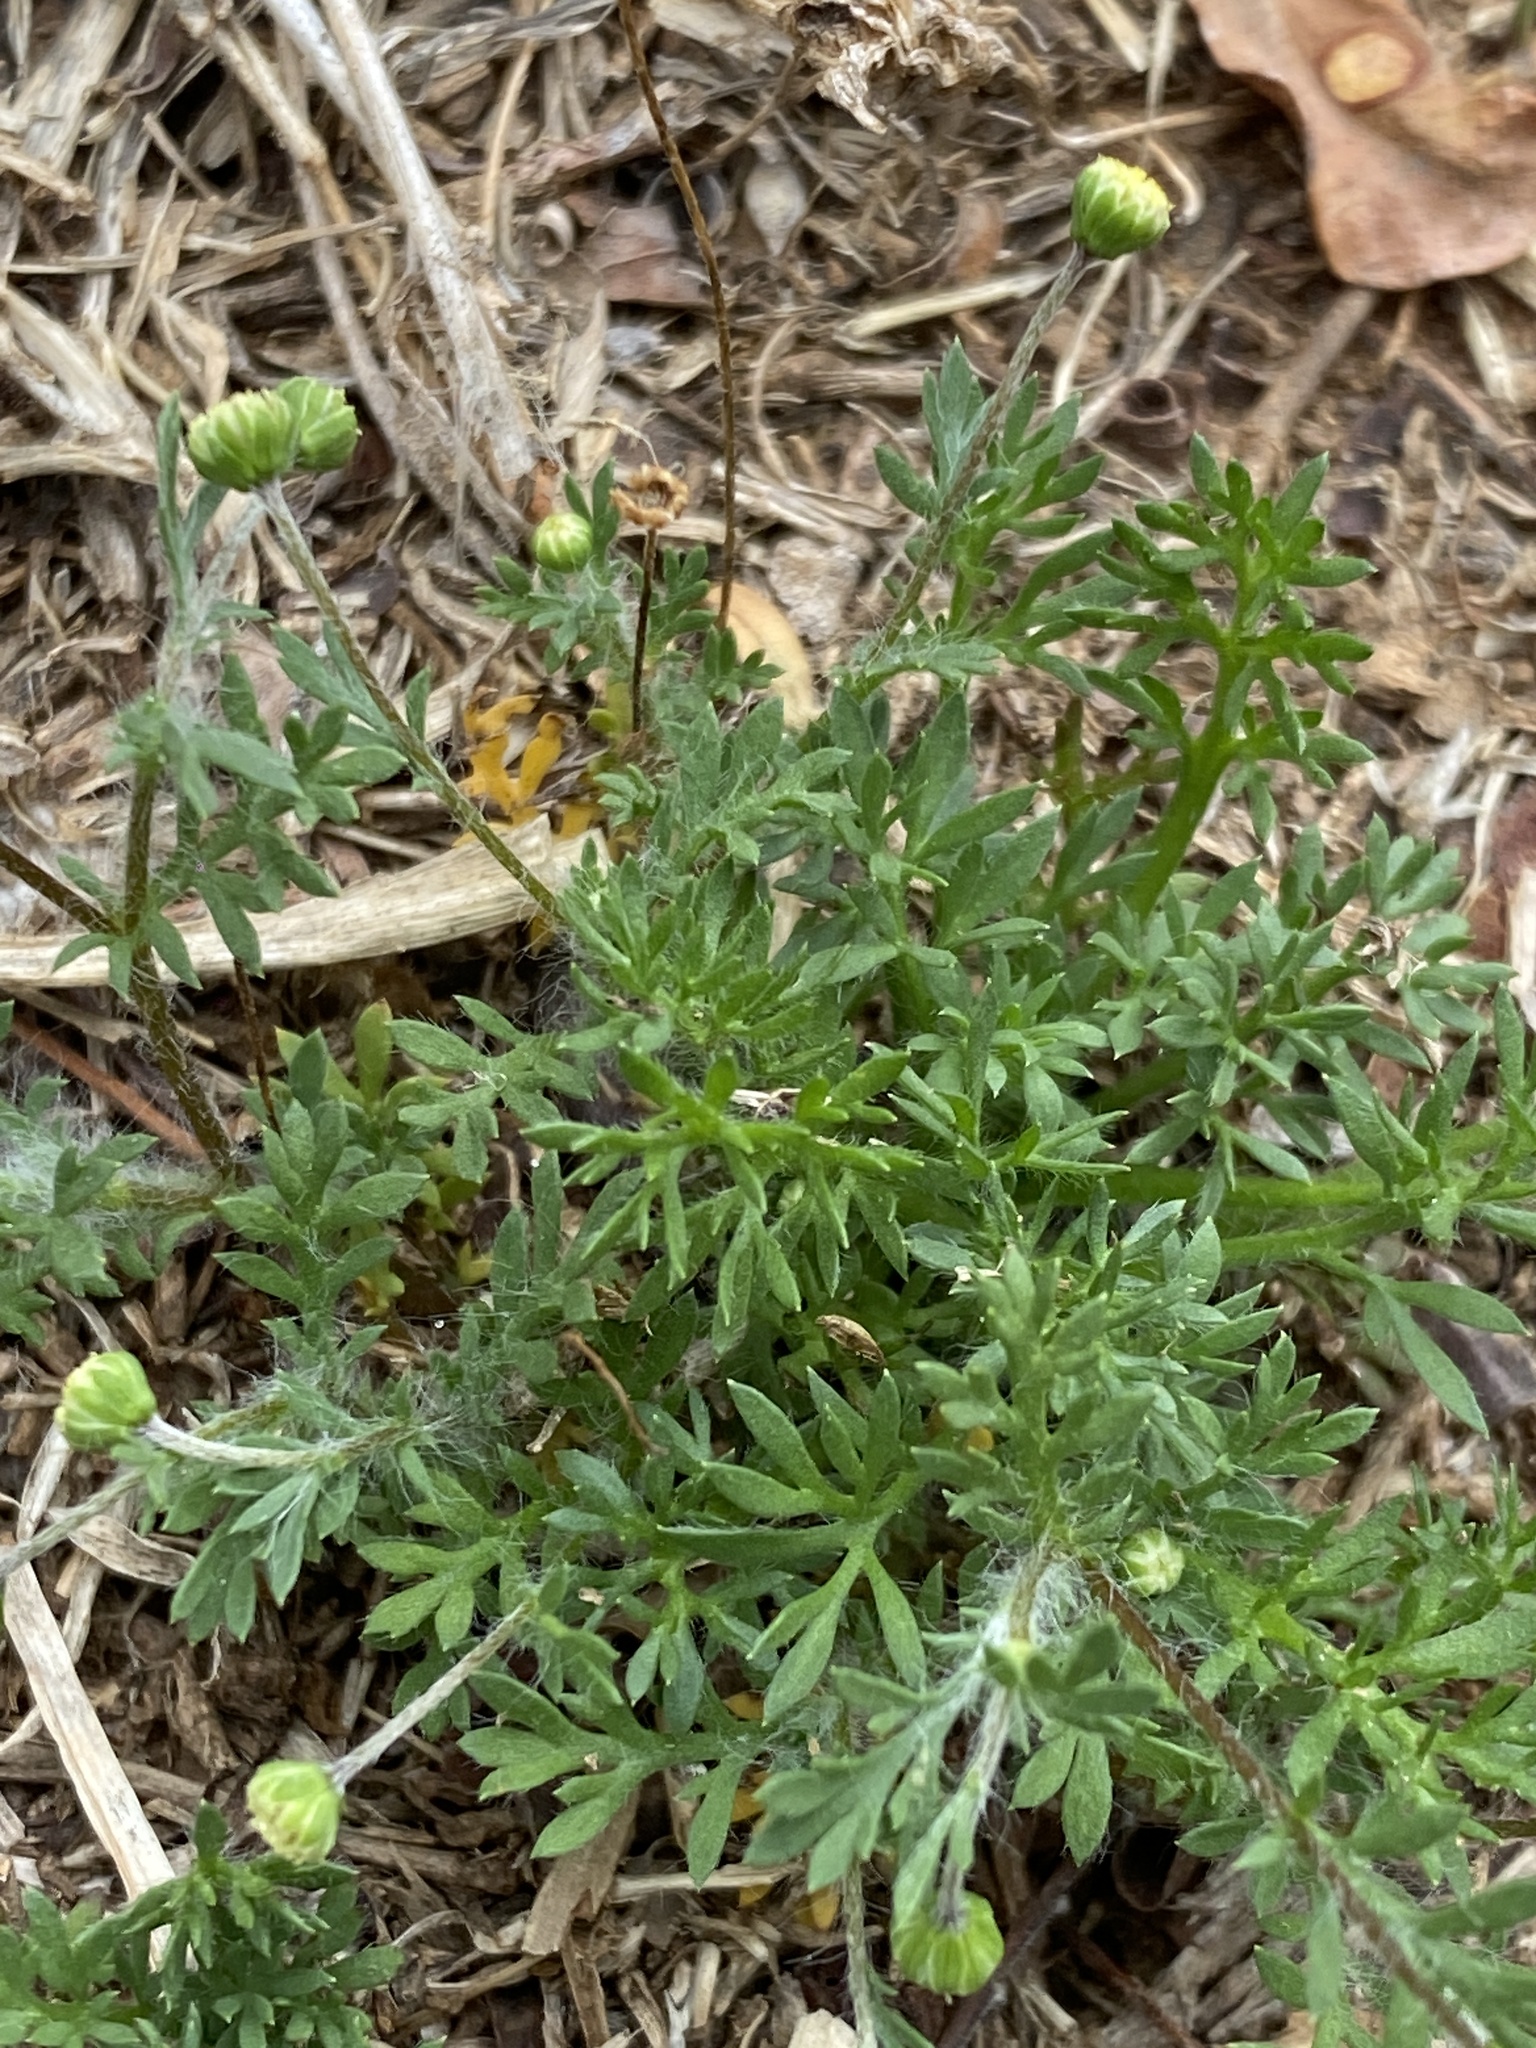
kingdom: Plantae
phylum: Tracheophyta
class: Magnoliopsida
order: Asterales
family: Asteraceae
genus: Cotula
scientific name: Cotula australis
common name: Australian waterbuttons
